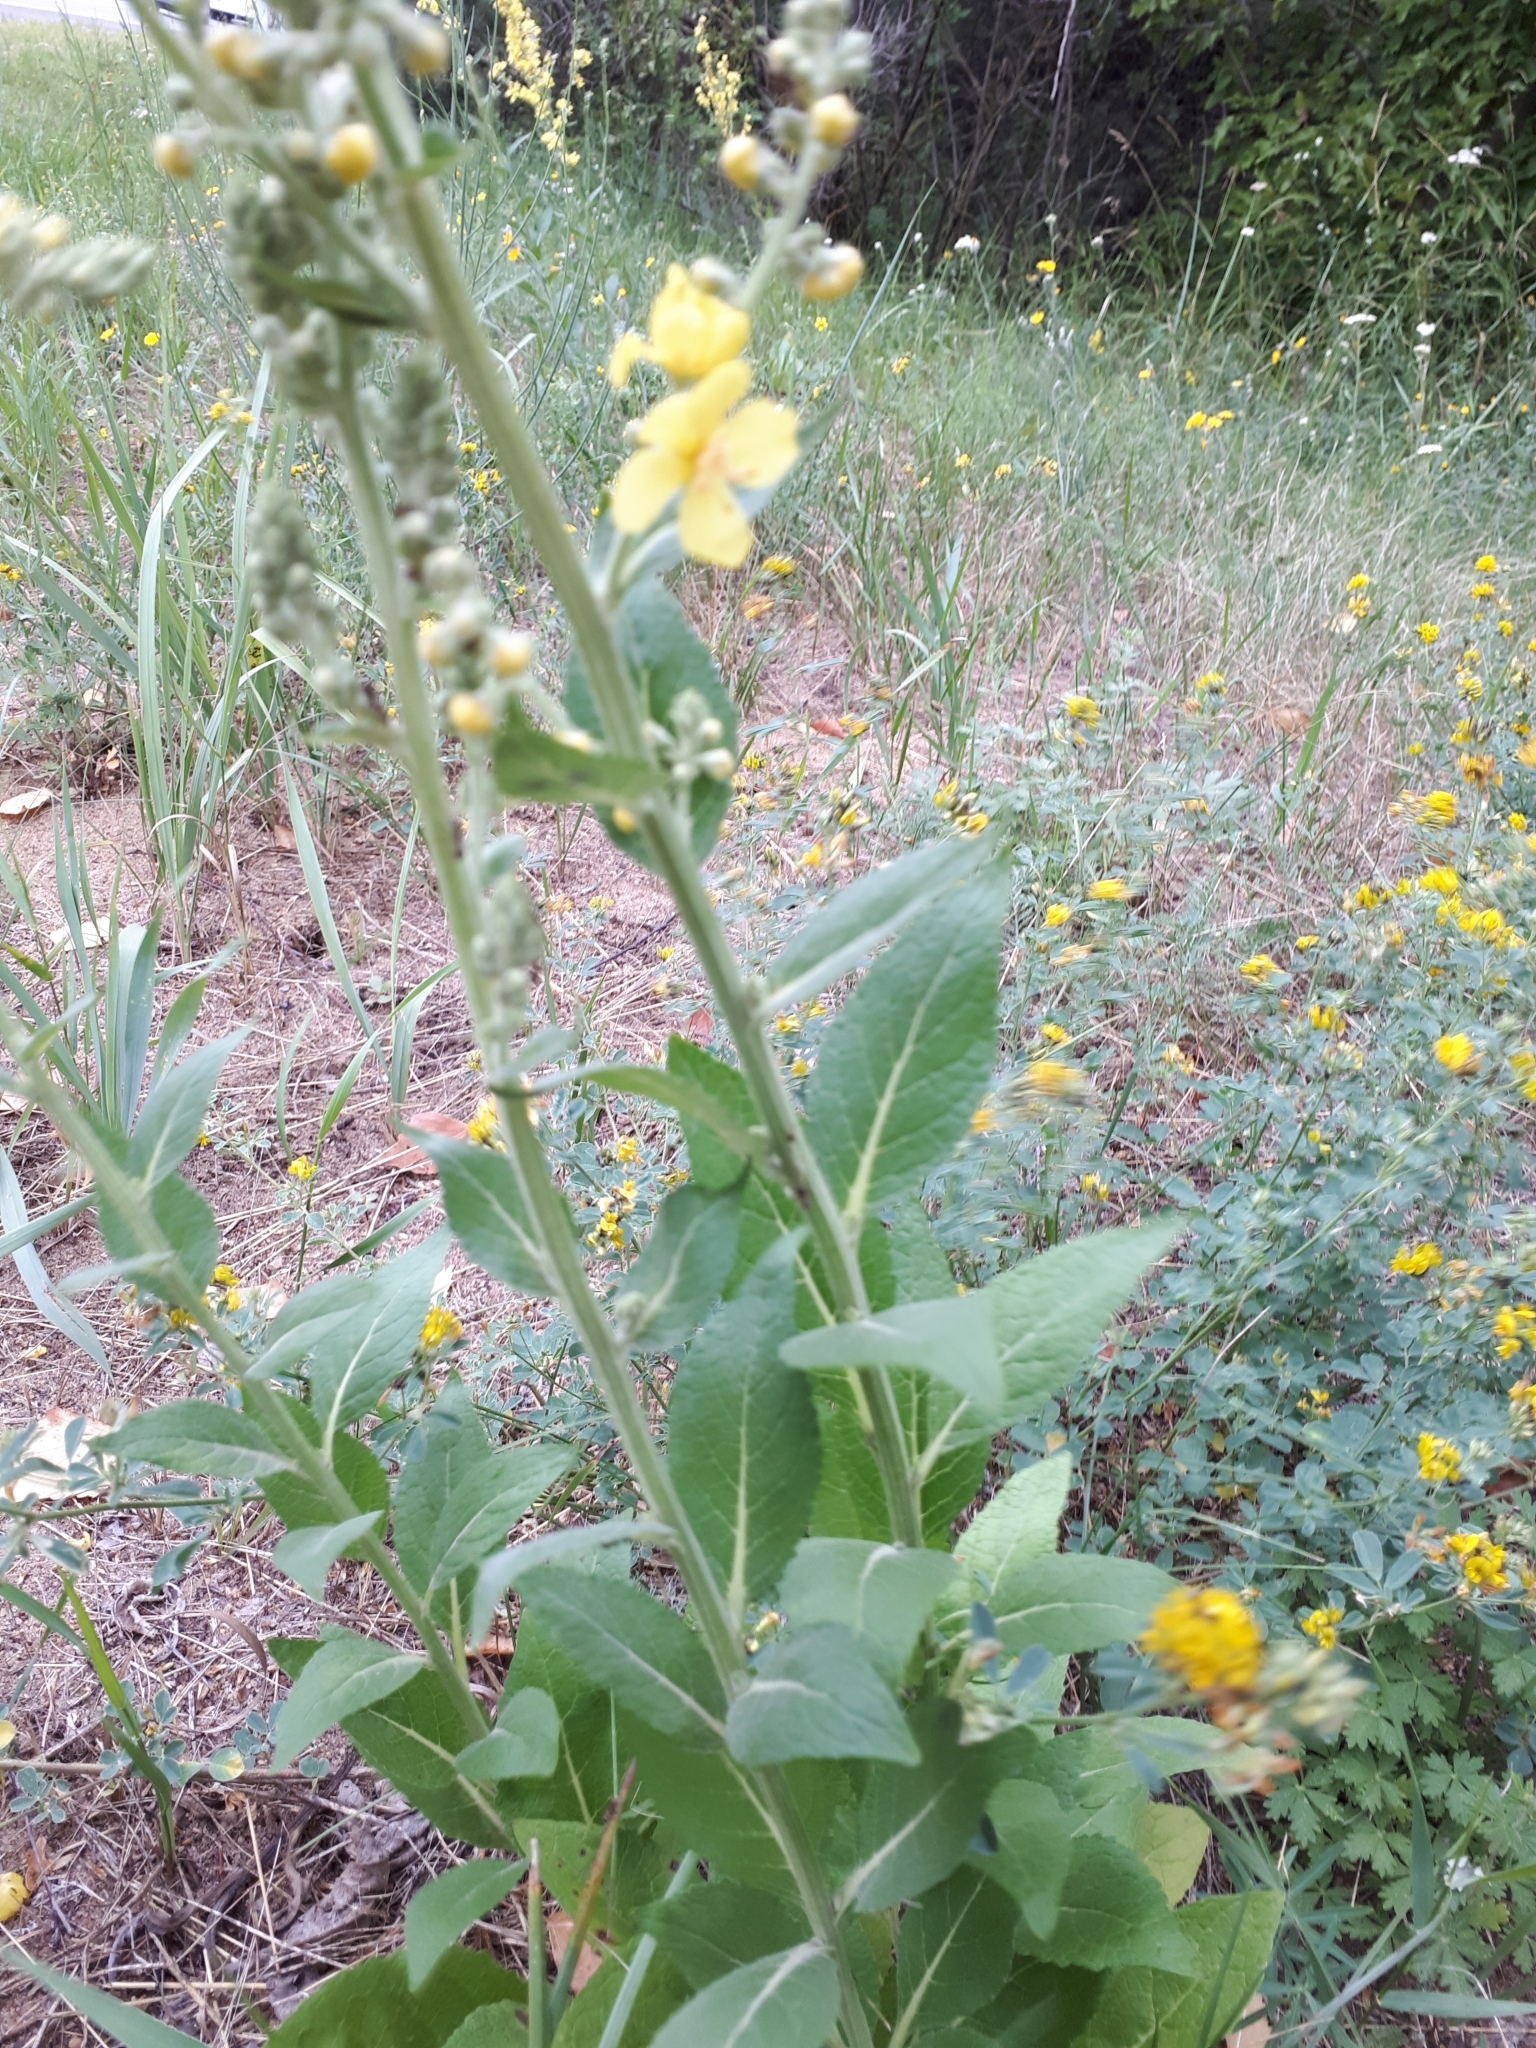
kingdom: Plantae
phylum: Tracheophyta
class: Magnoliopsida
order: Lamiales
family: Scrophulariaceae
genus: Verbascum
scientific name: Verbascum lychnitis
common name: White mullein
